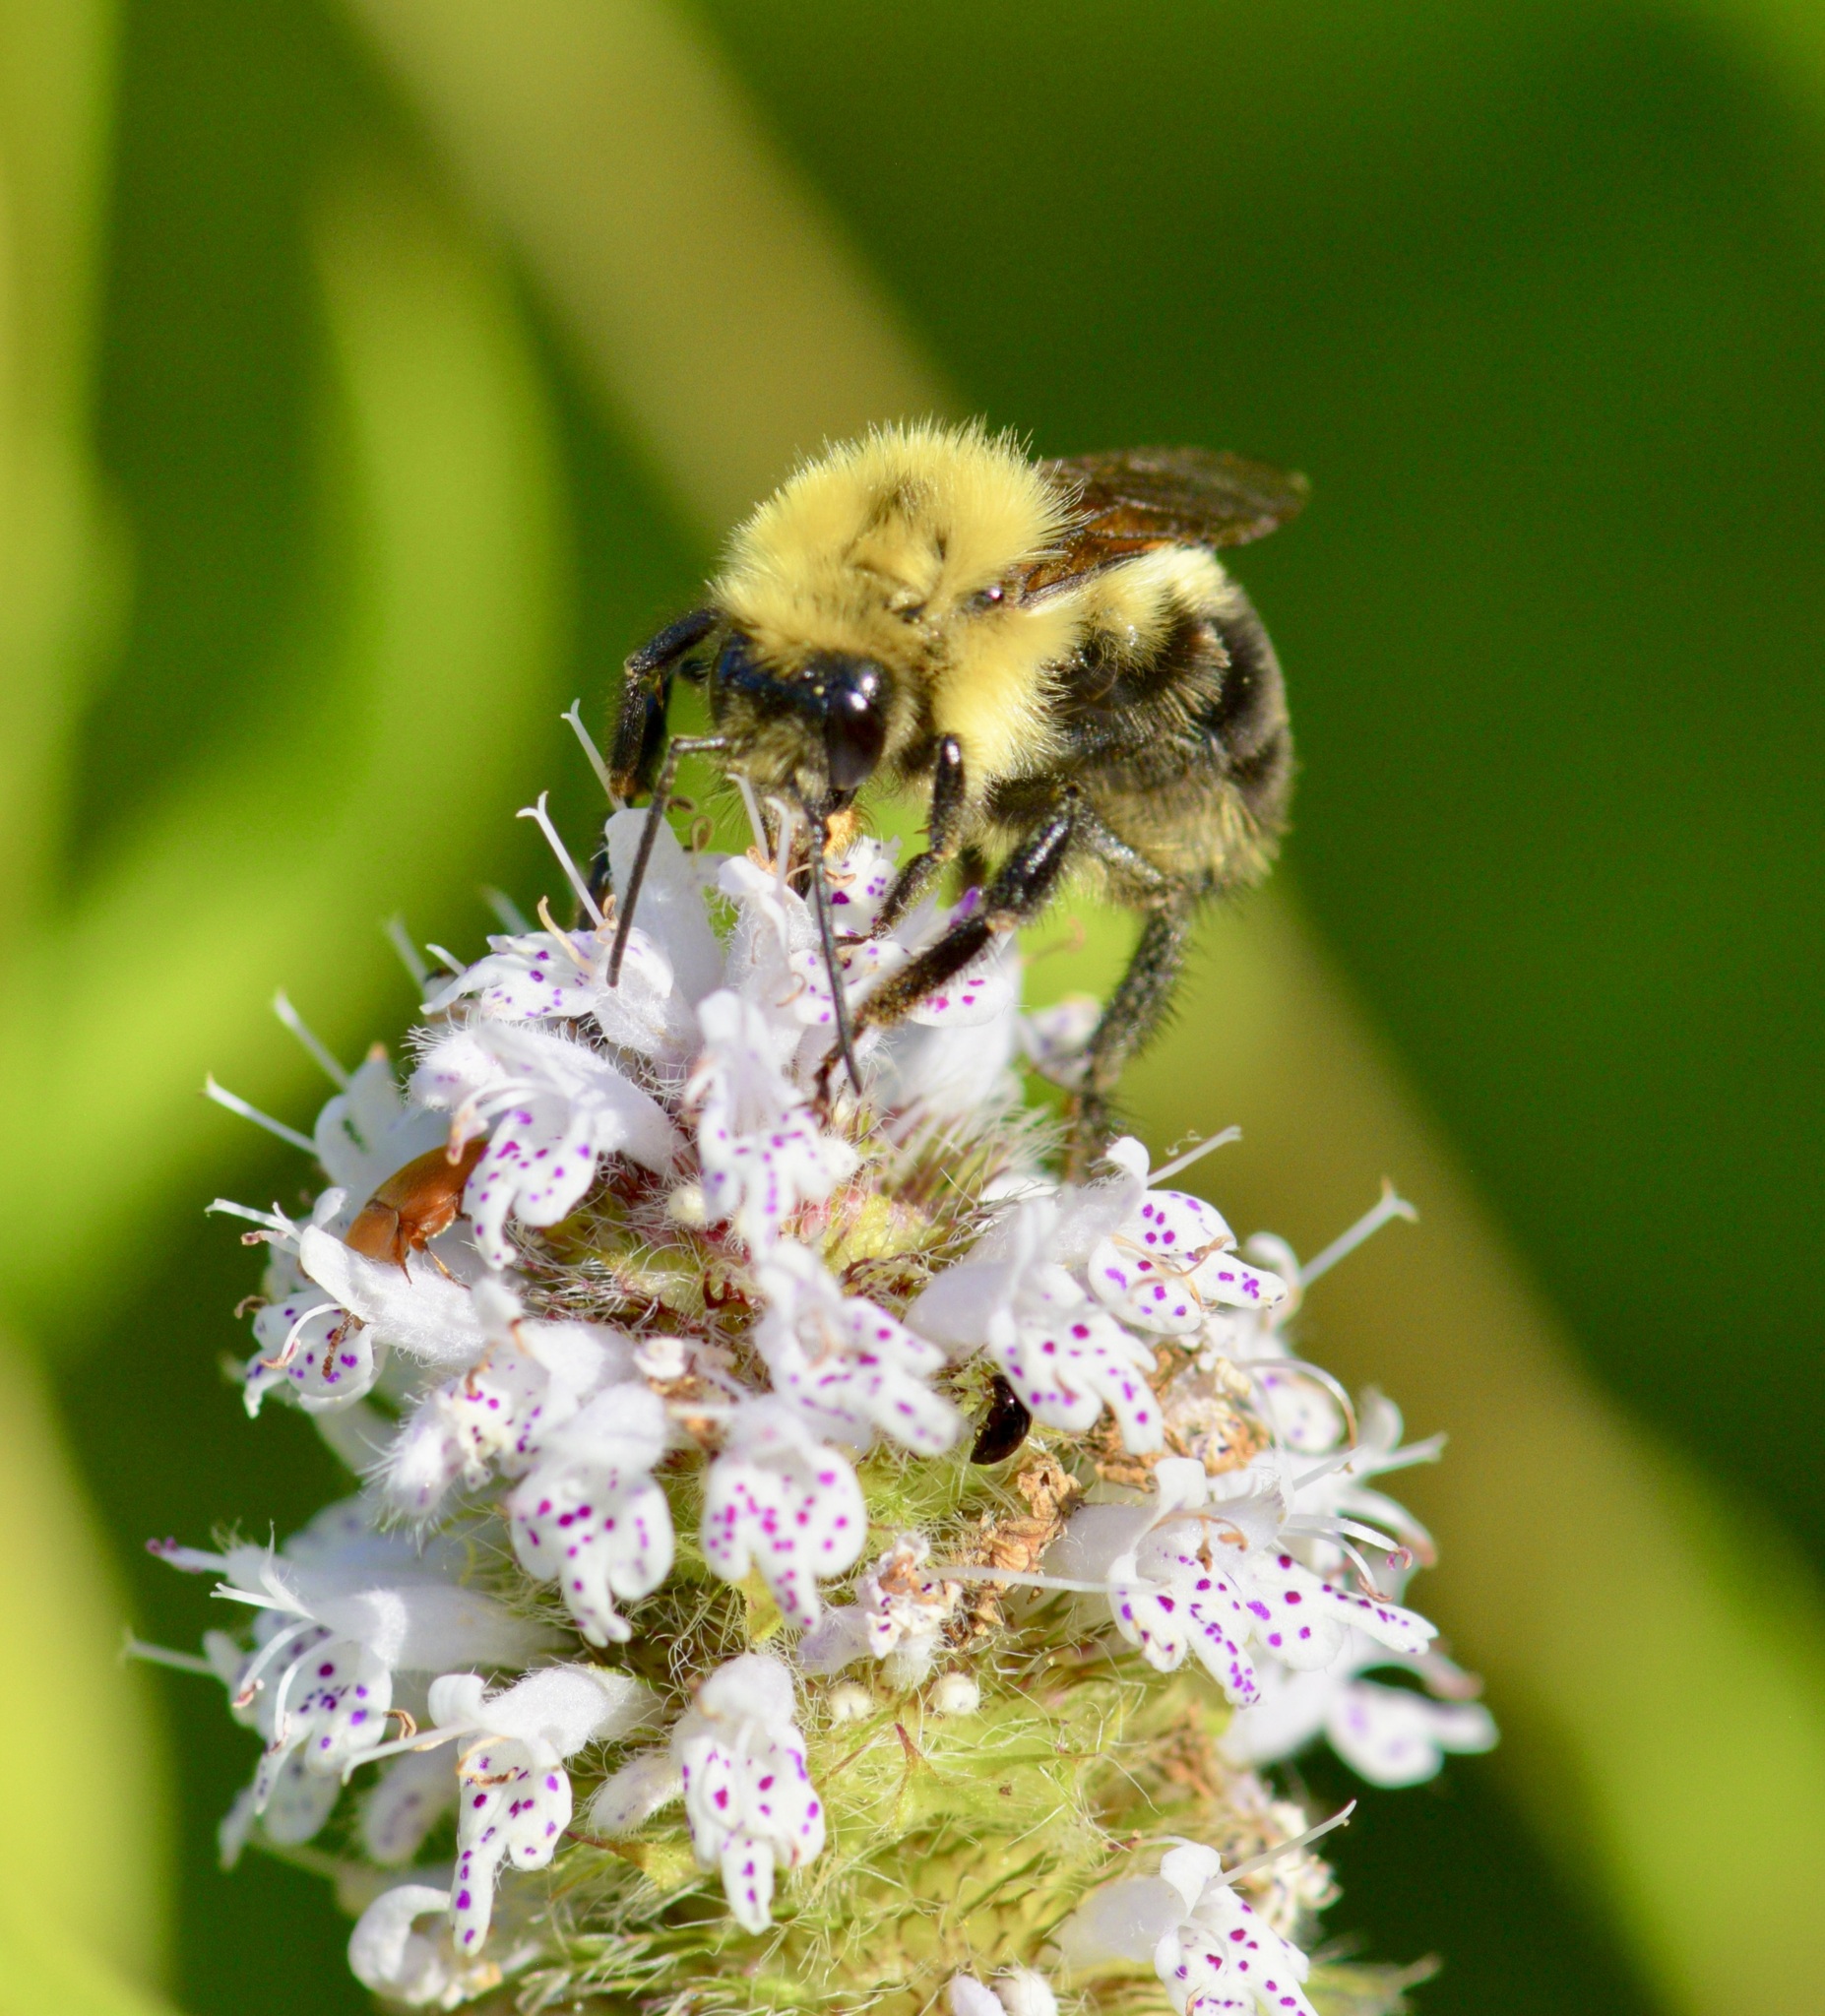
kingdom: Animalia
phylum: Arthropoda
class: Insecta
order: Hymenoptera
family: Apidae
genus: Bombus
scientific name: Bombus bimaculatus
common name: Two-spotted bumble bee
